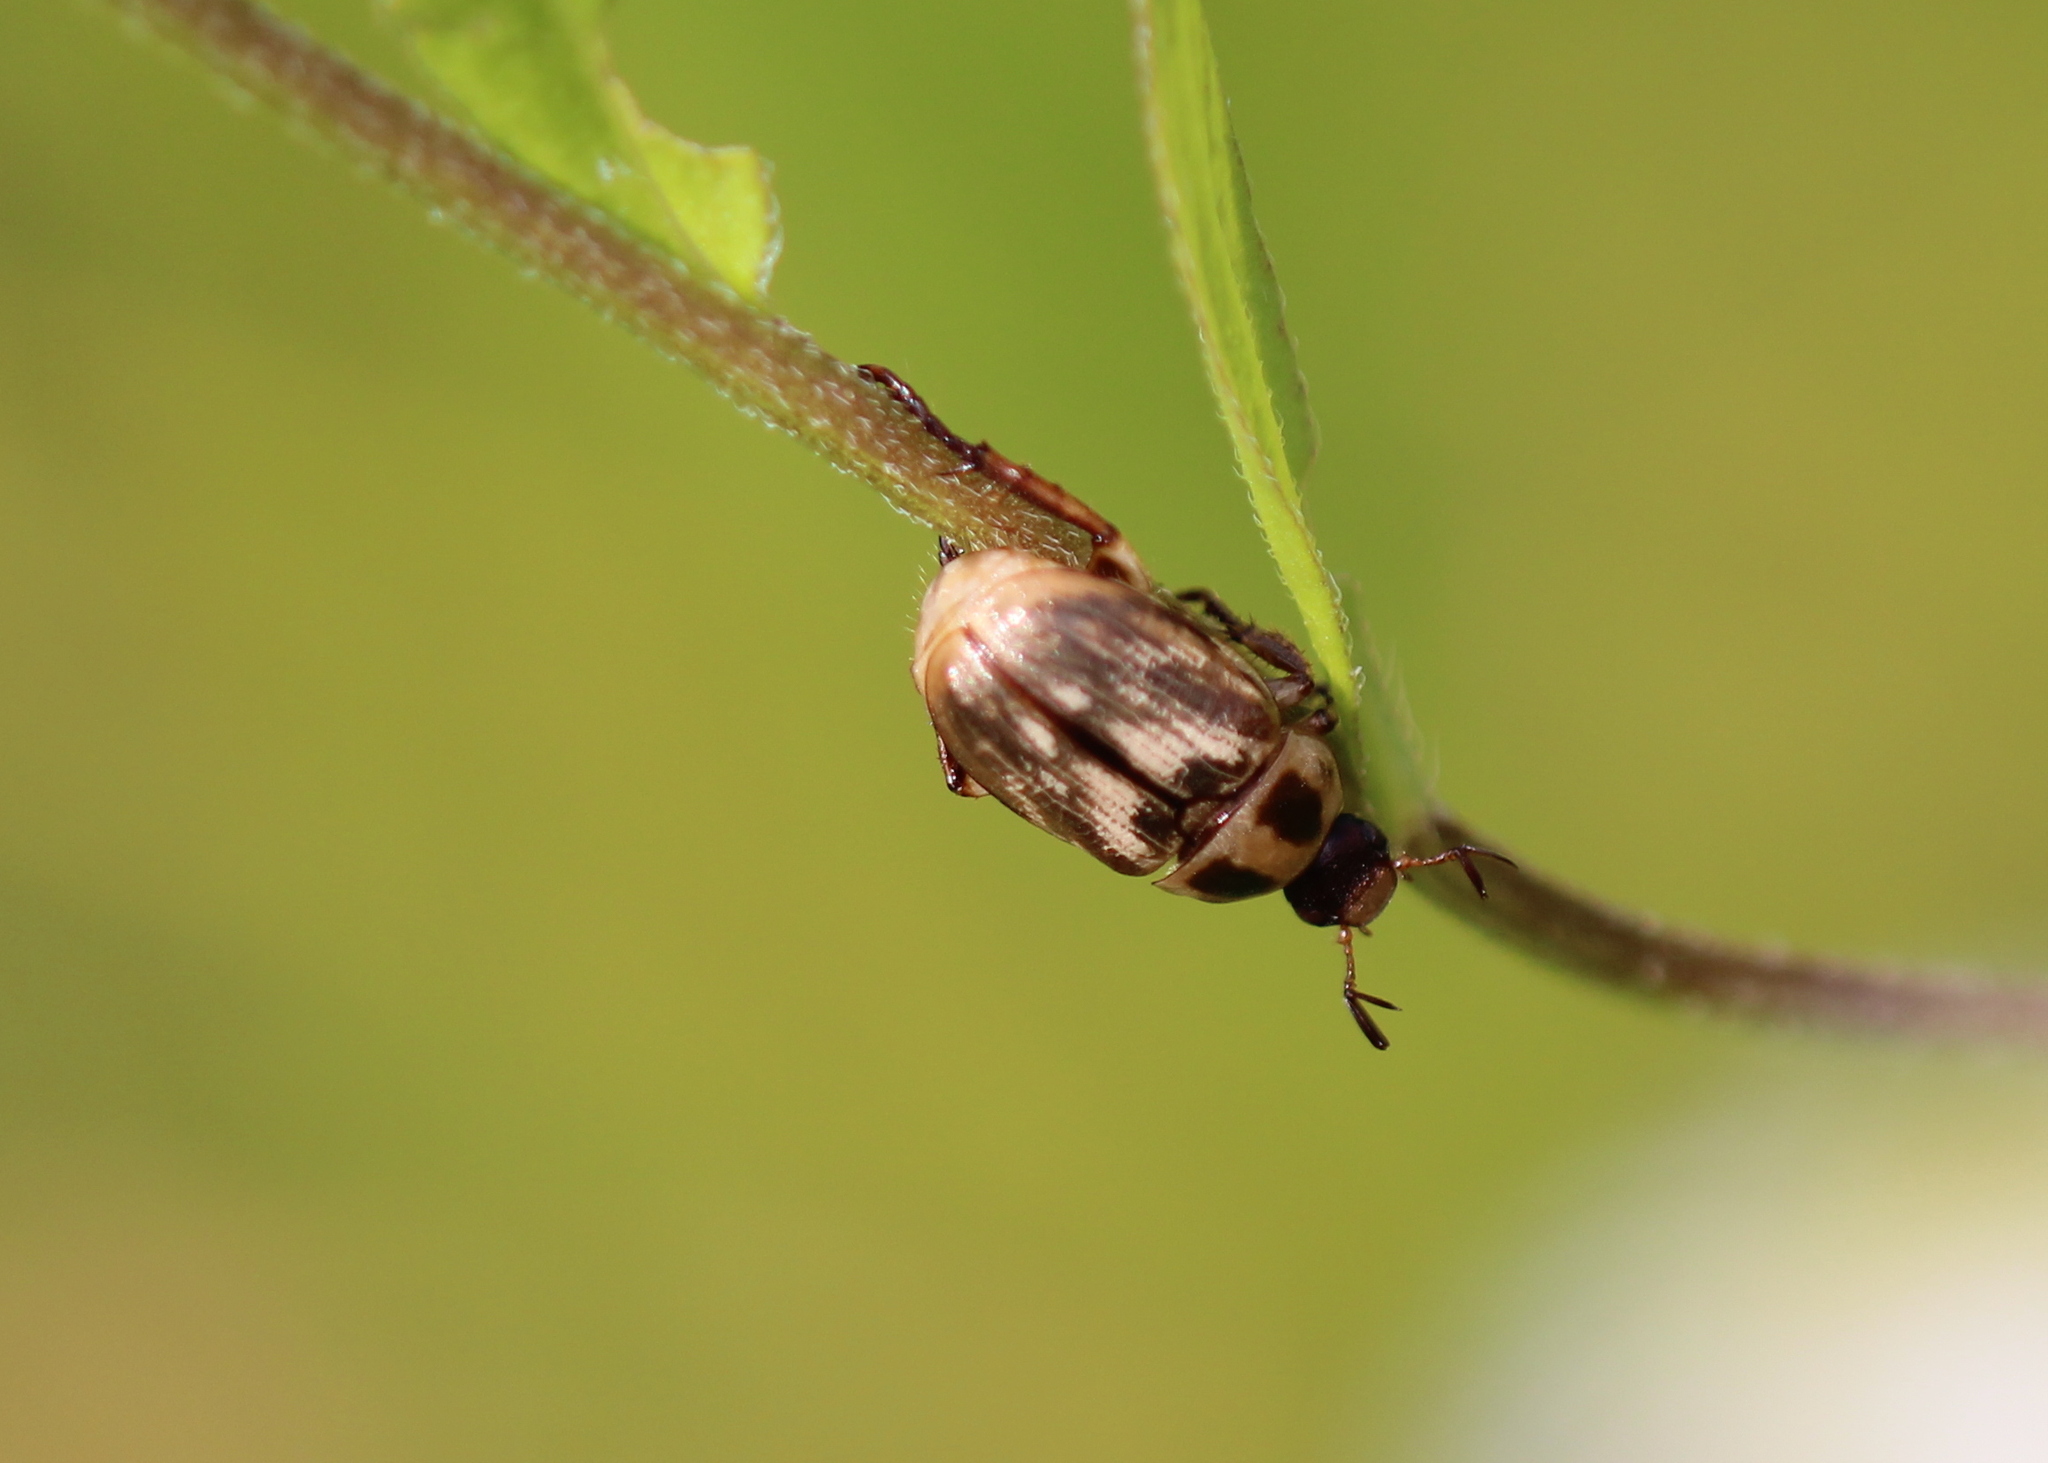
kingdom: Animalia
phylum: Arthropoda
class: Insecta
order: Coleoptera
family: Scarabaeidae
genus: Exomala
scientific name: Exomala orientalis
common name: Oriental beetle
